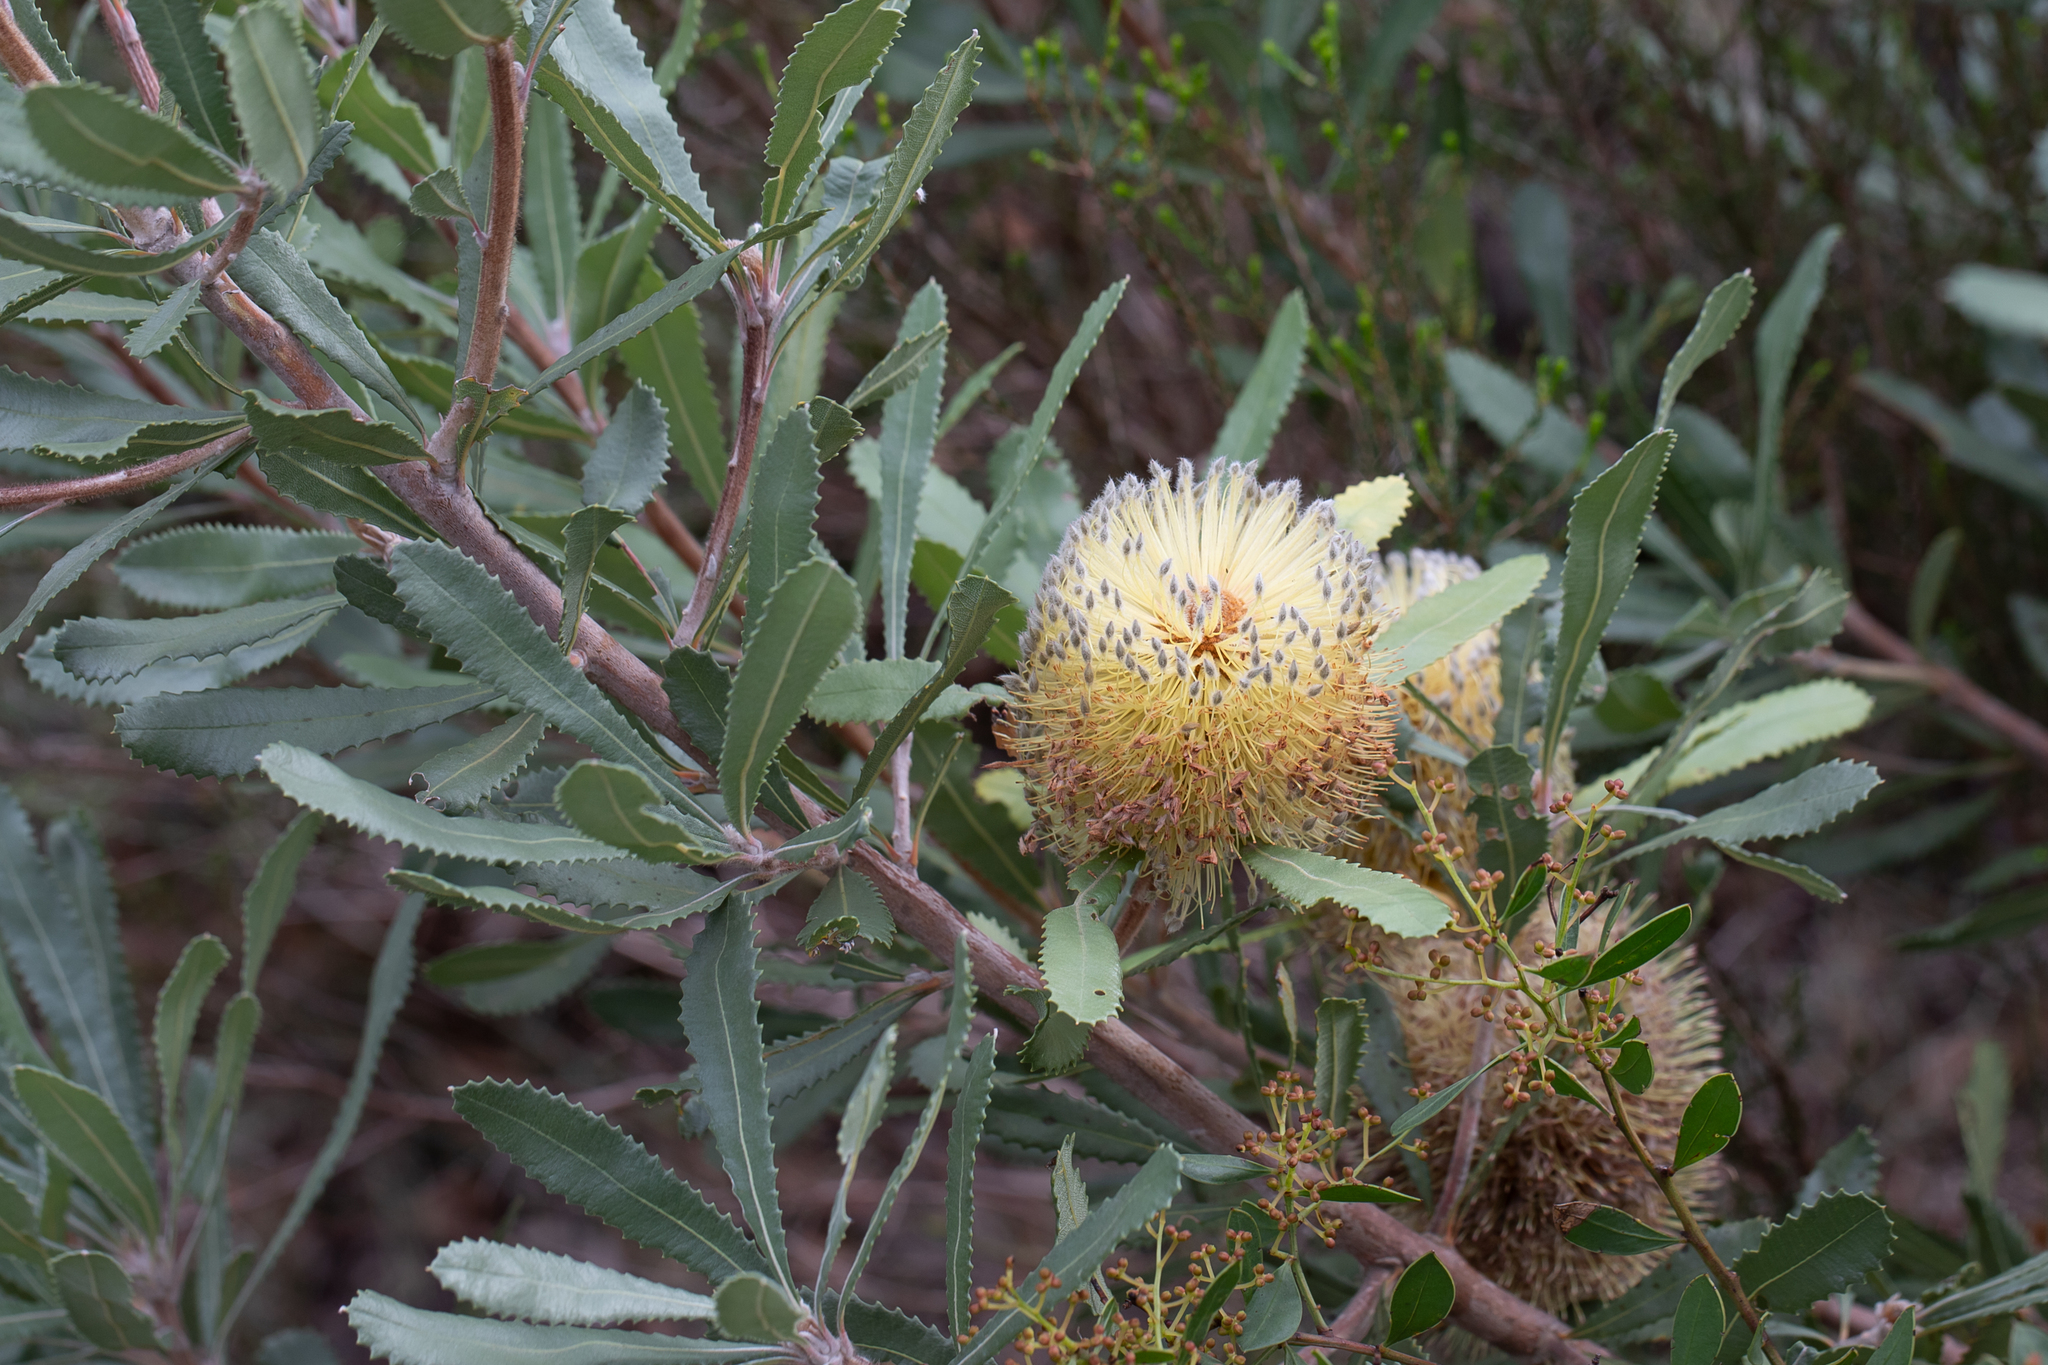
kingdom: Plantae
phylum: Tracheophyta
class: Magnoliopsida
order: Proteales
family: Proteaceae
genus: Banksia
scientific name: Banksia ornata
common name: Desert banksia
